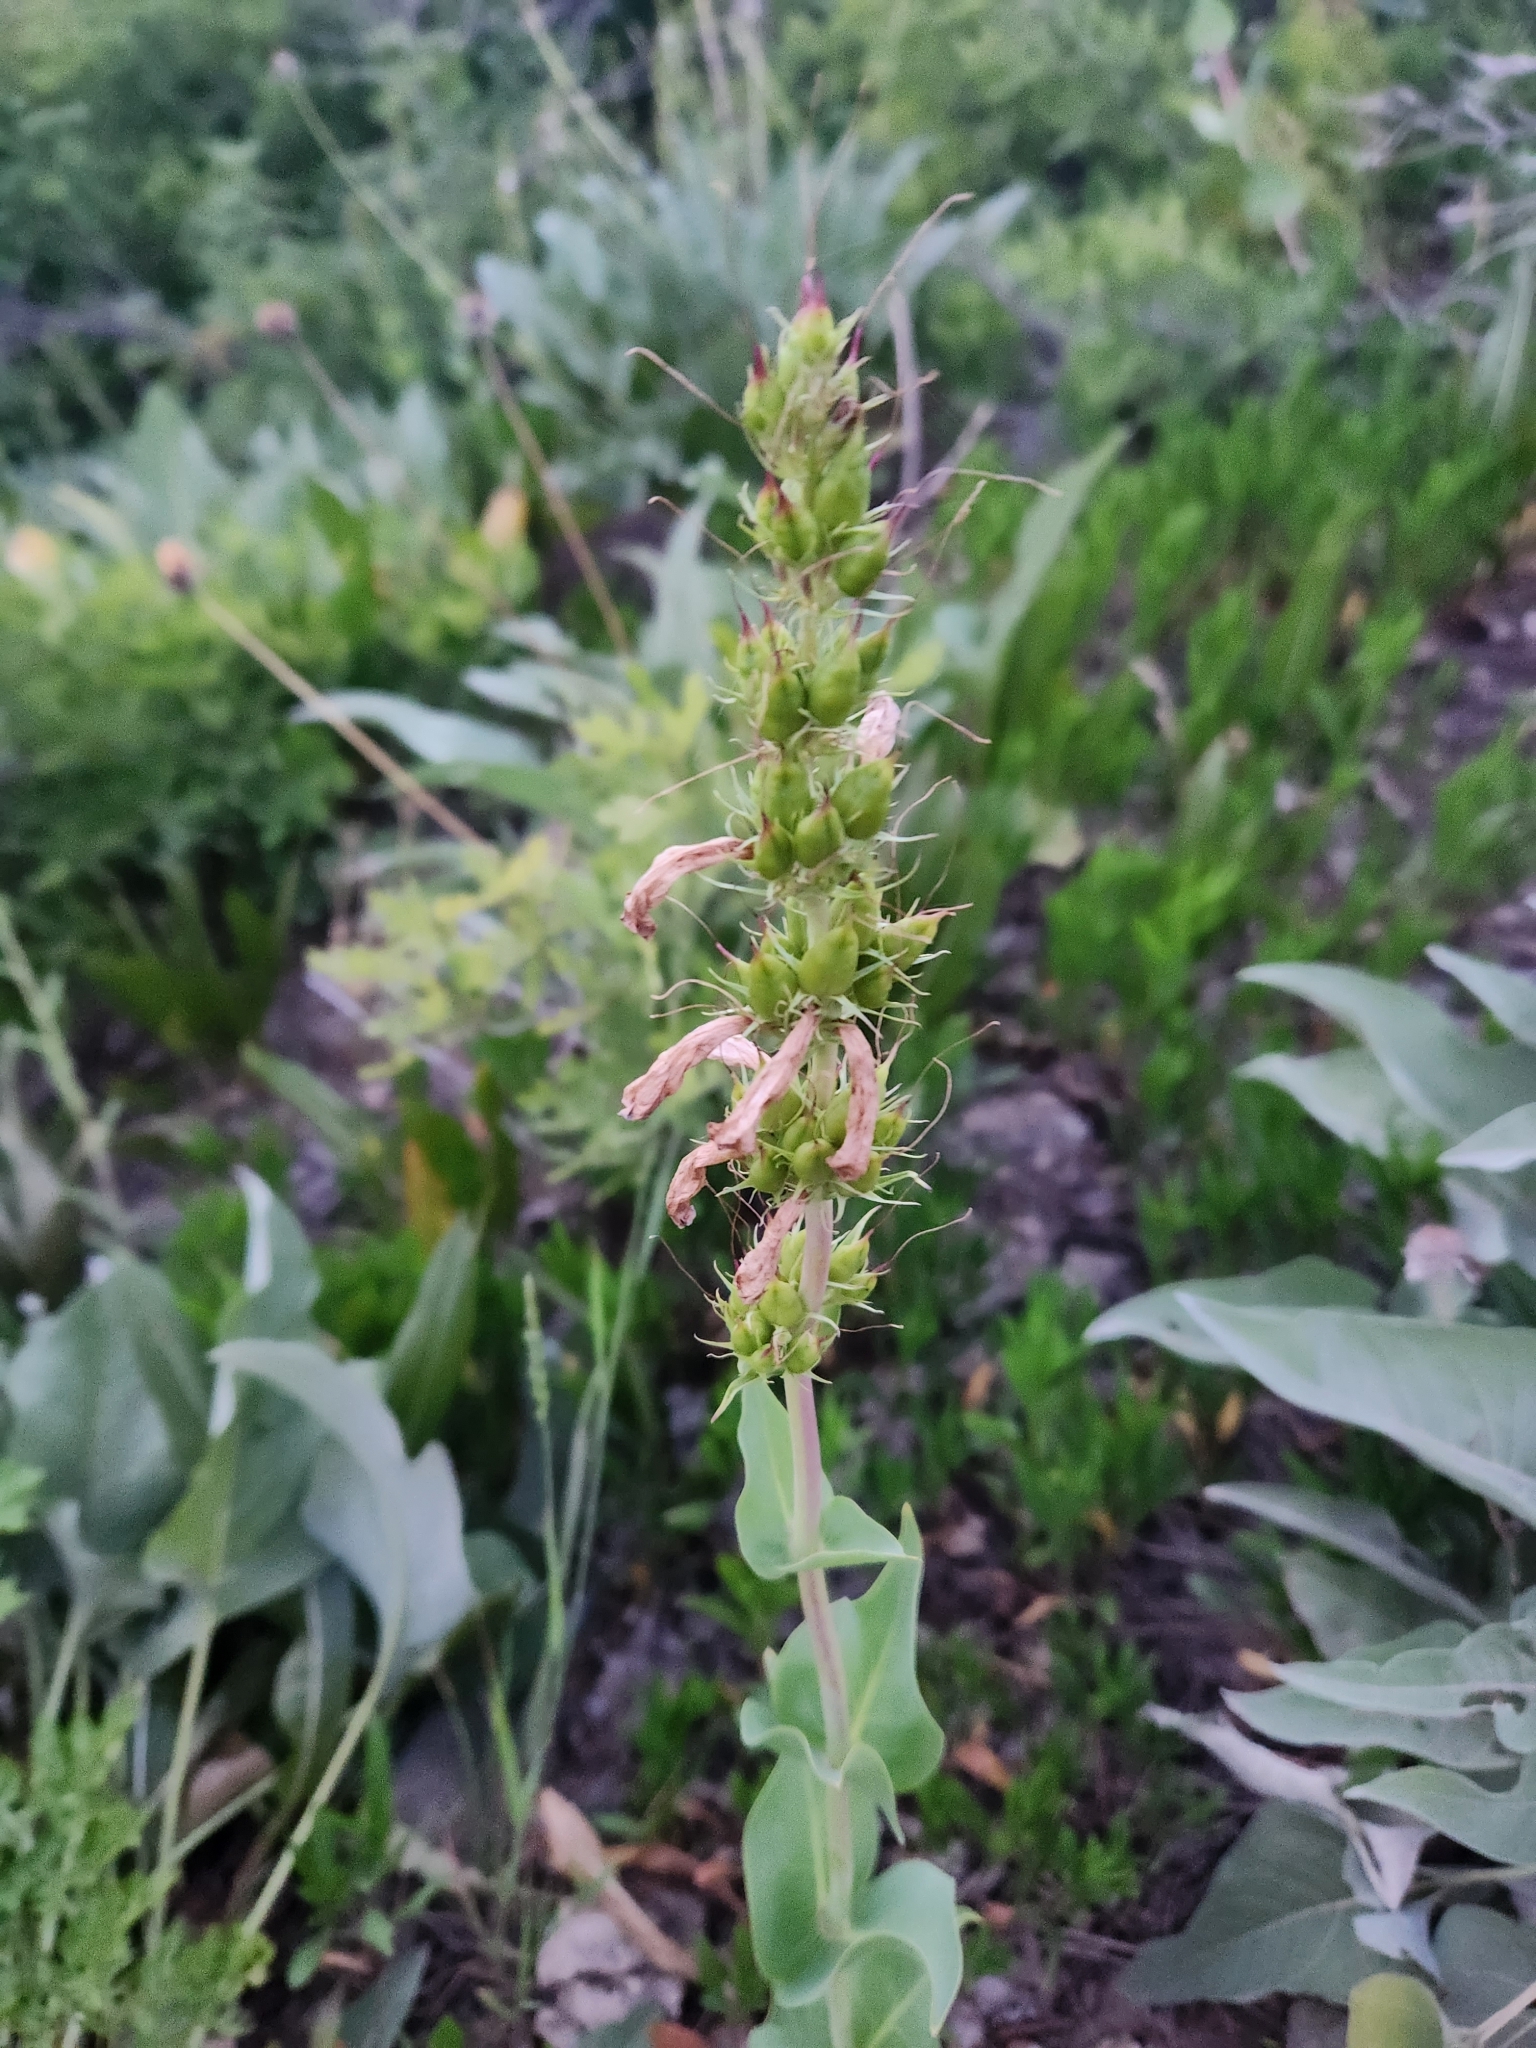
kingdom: Plantae
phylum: Tracheophyta
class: Magnoliopsida
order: Lamiales
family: Plantaginaceae
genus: Penstemon
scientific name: Penstemon cyananthus
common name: Wasatch penstemon
